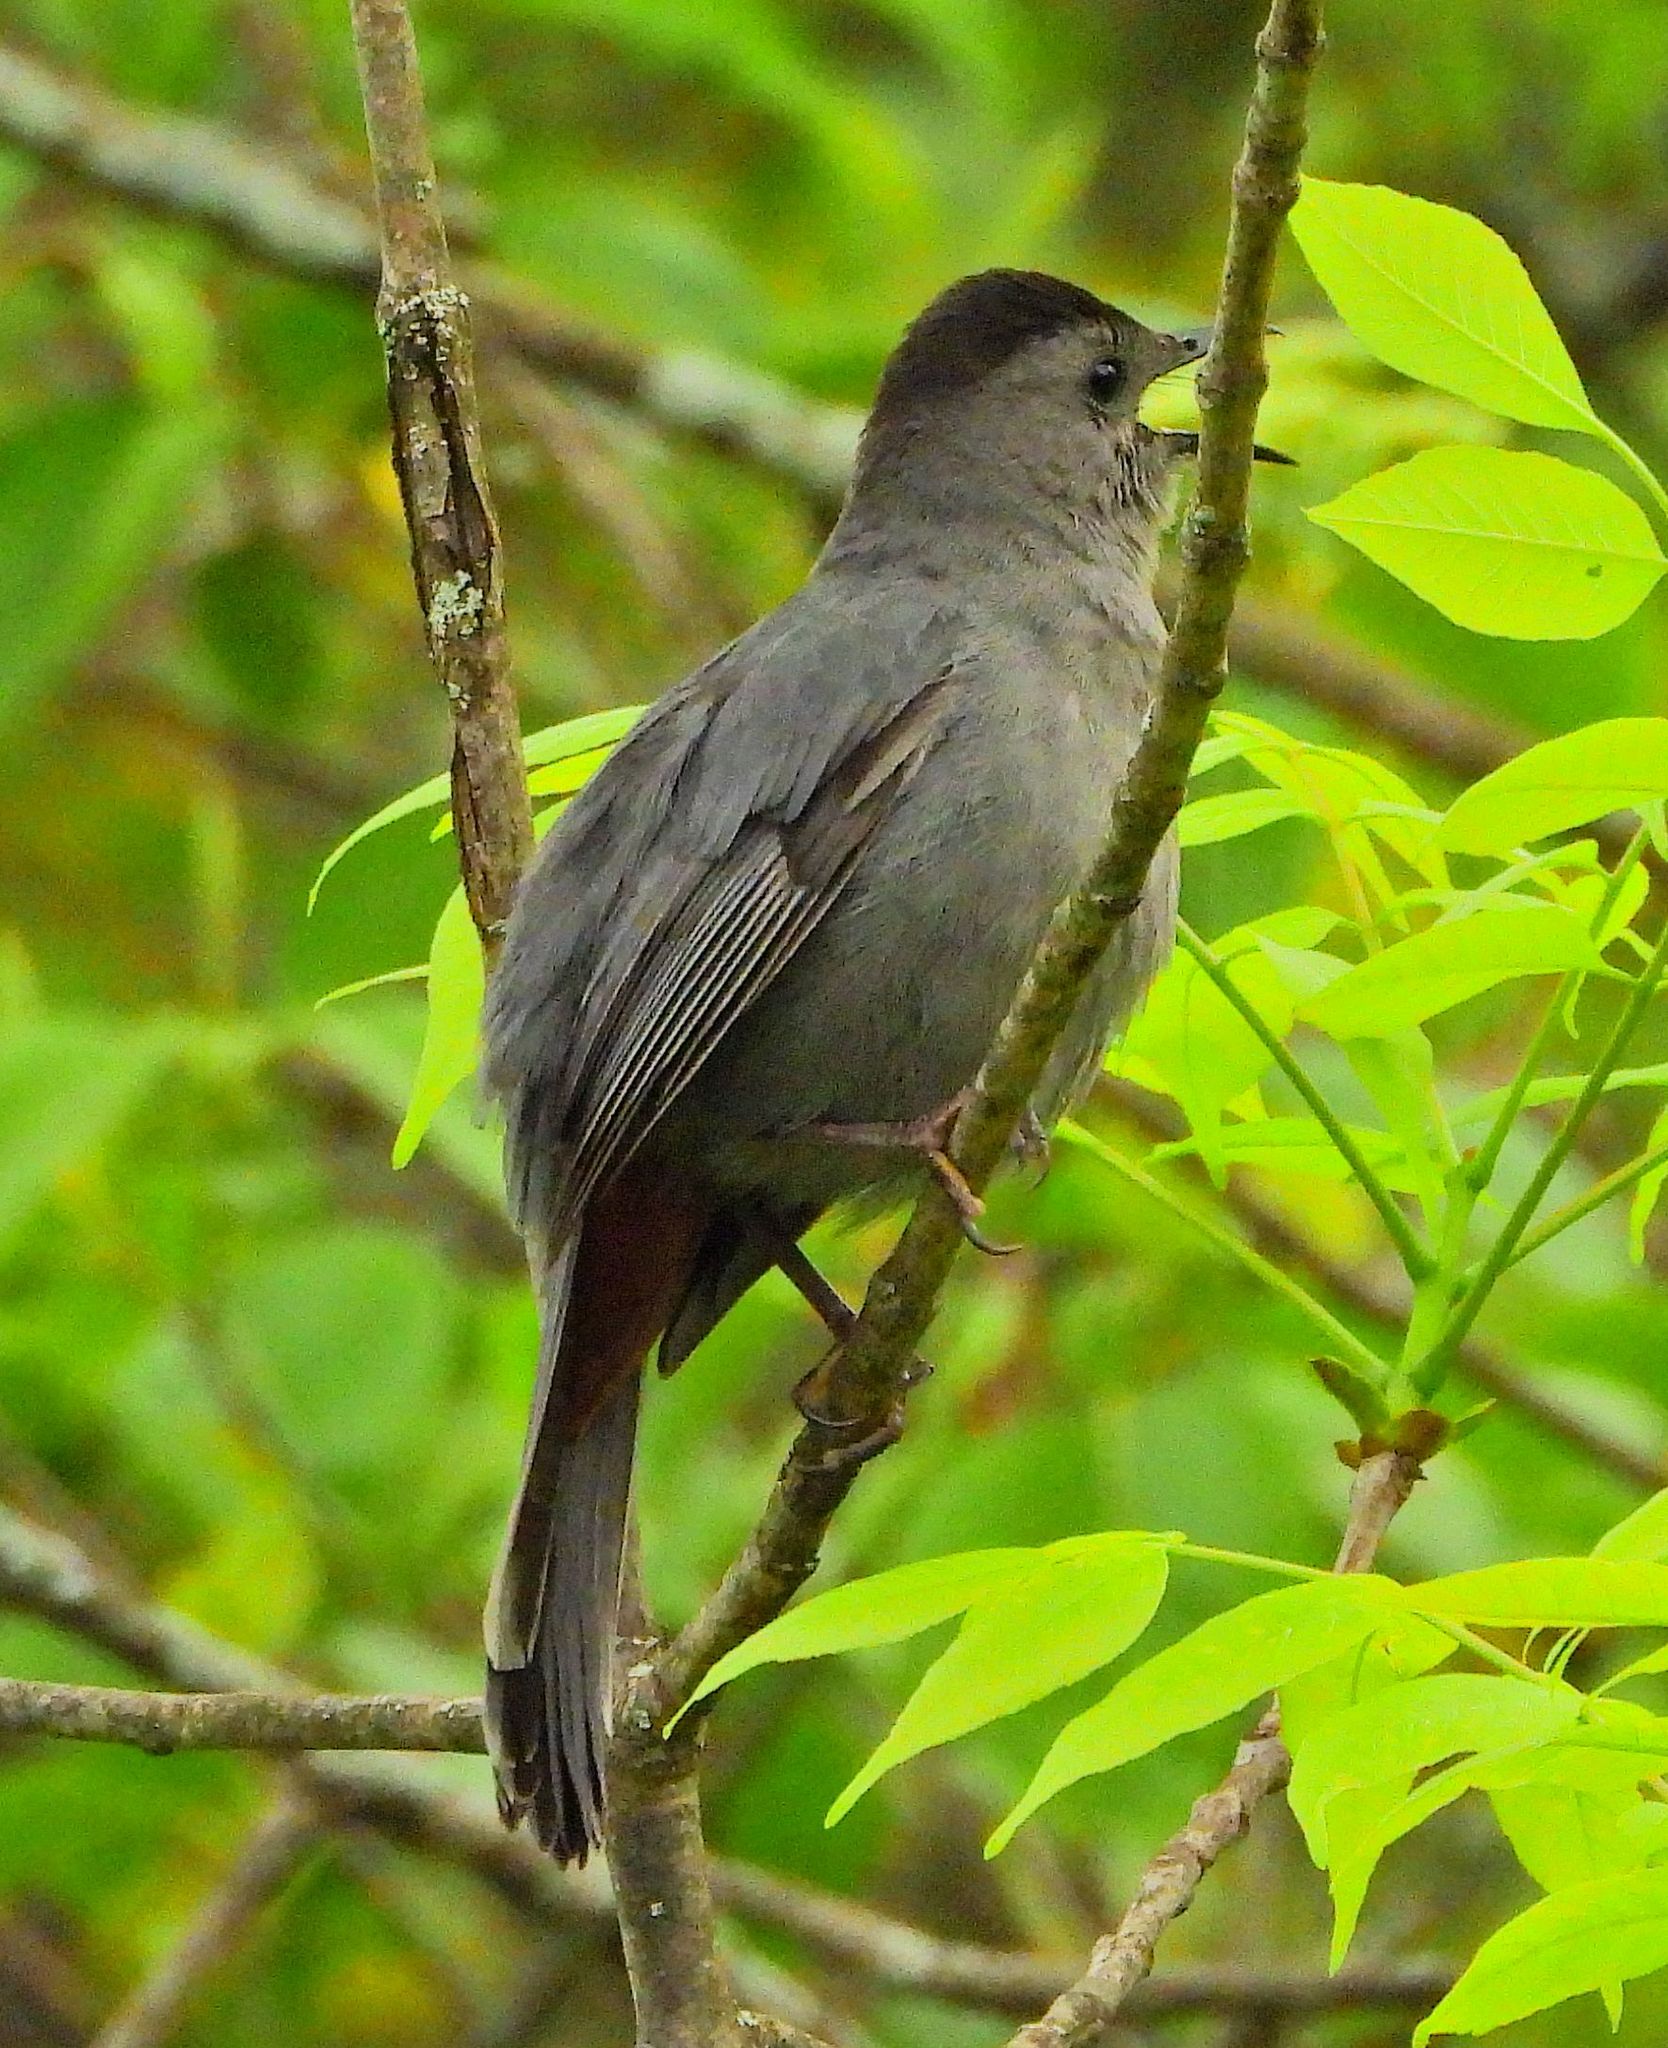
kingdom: Animalia
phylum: Chordata
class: Aves
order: Passeriformes
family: Mimidae
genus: Dumetella
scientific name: Dumetella carolinensis
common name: Gray catbird
